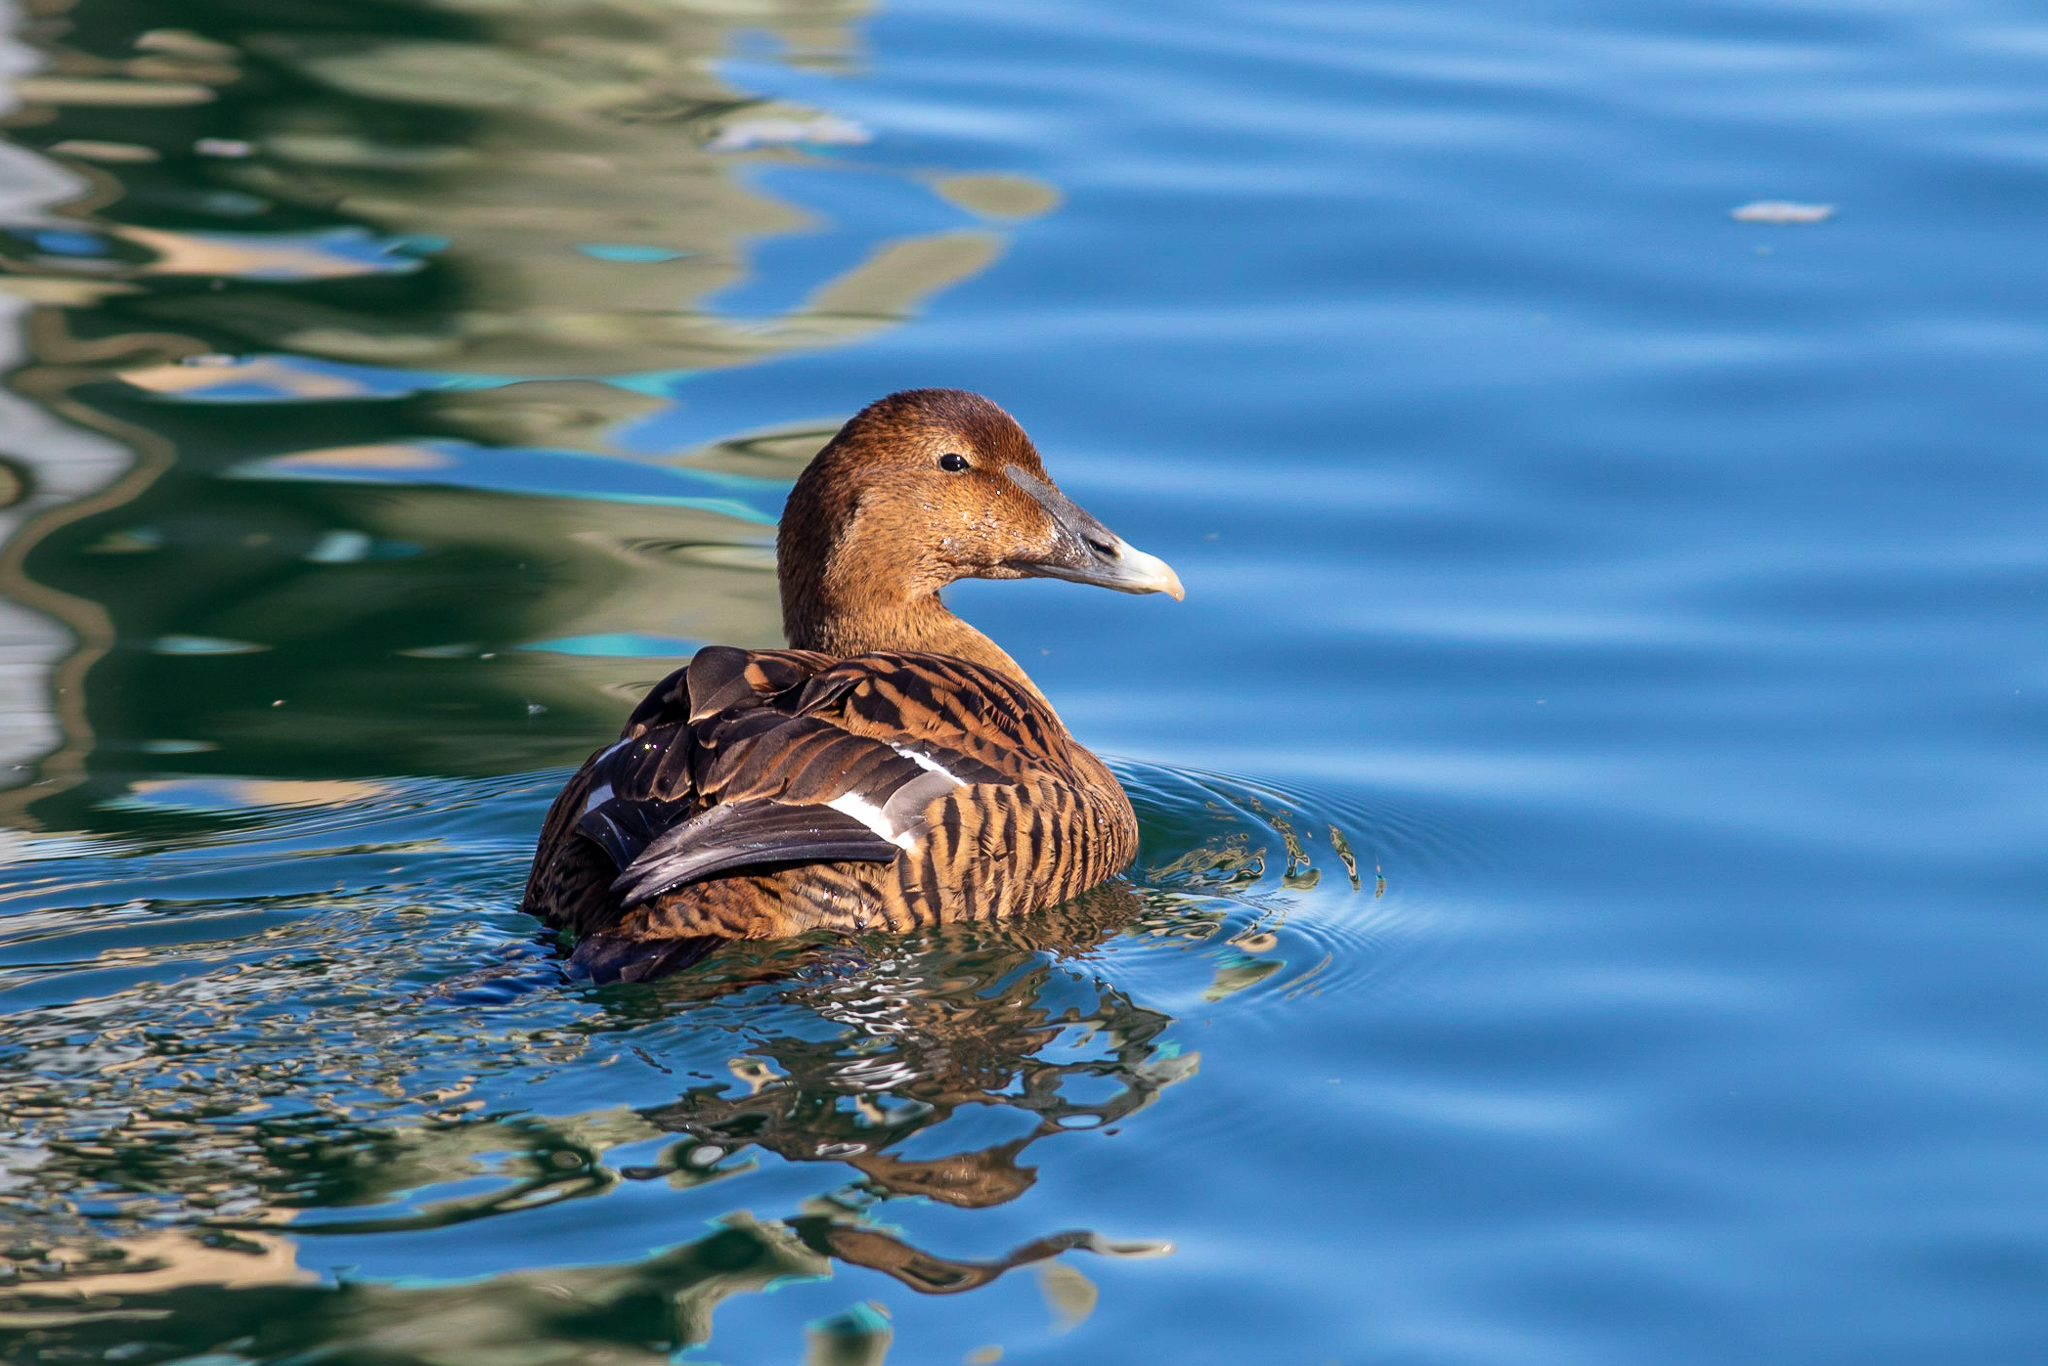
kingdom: Animalia
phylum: Chordata
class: Aves
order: Anseriformes
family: Anatidae
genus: Somateria
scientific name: Somateria mollissima
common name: Common eider
